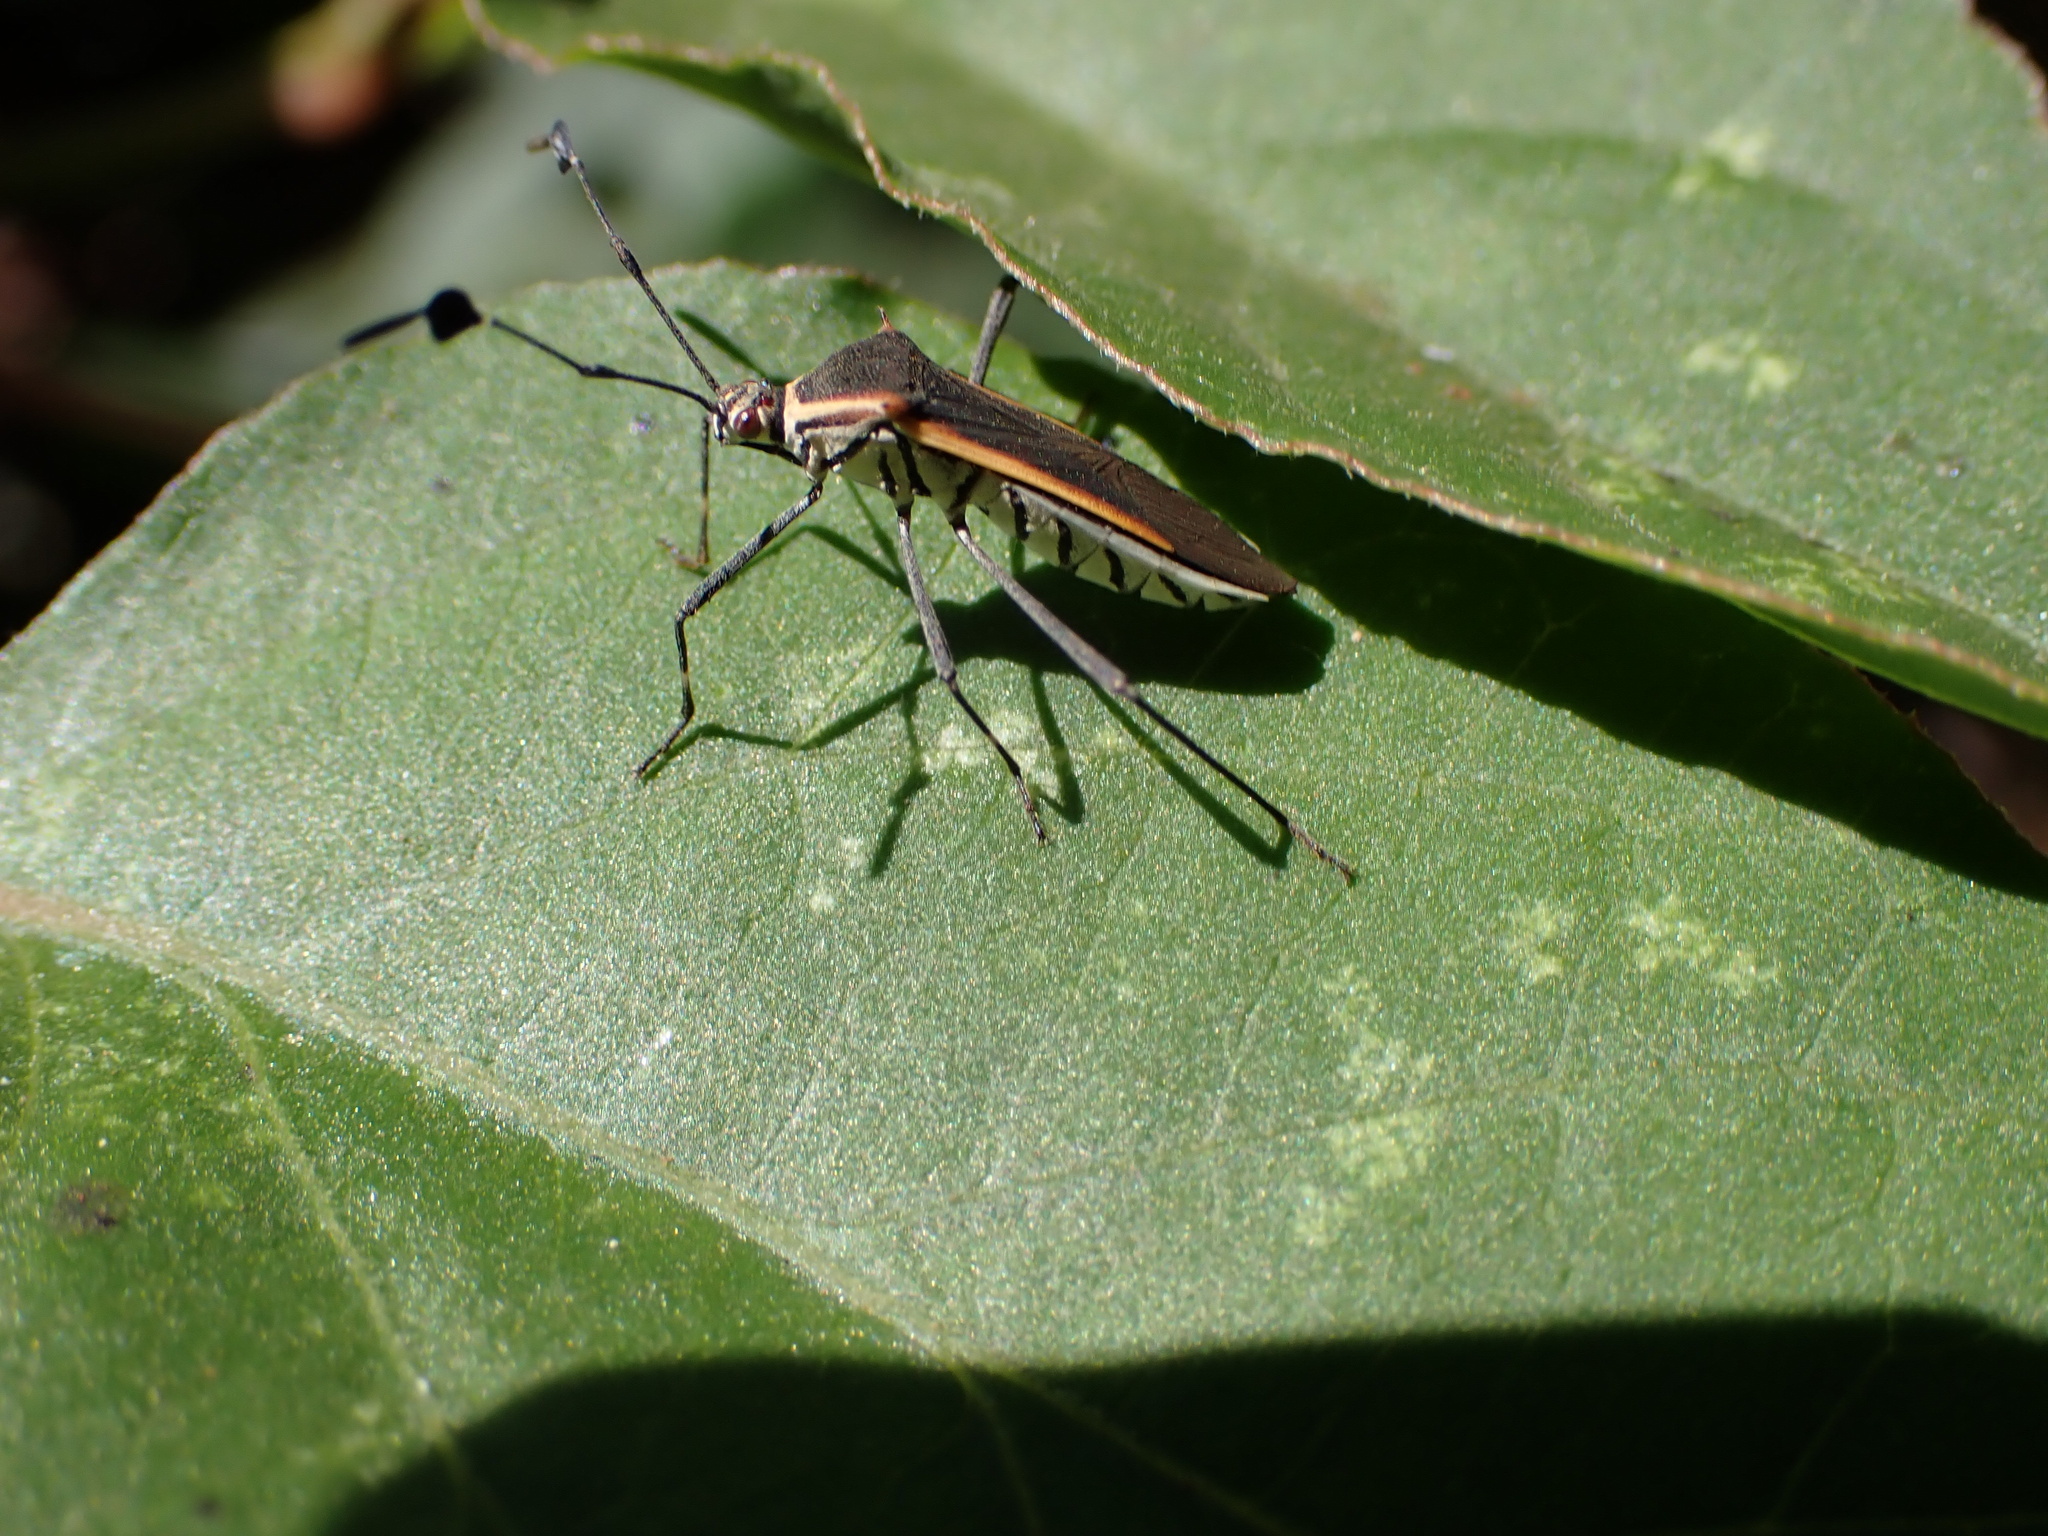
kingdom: Animalia
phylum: Arthropoda
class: Insecta
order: Hemiptera
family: Coreidae
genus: Plapigus
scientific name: Plapigus circumcinctus
